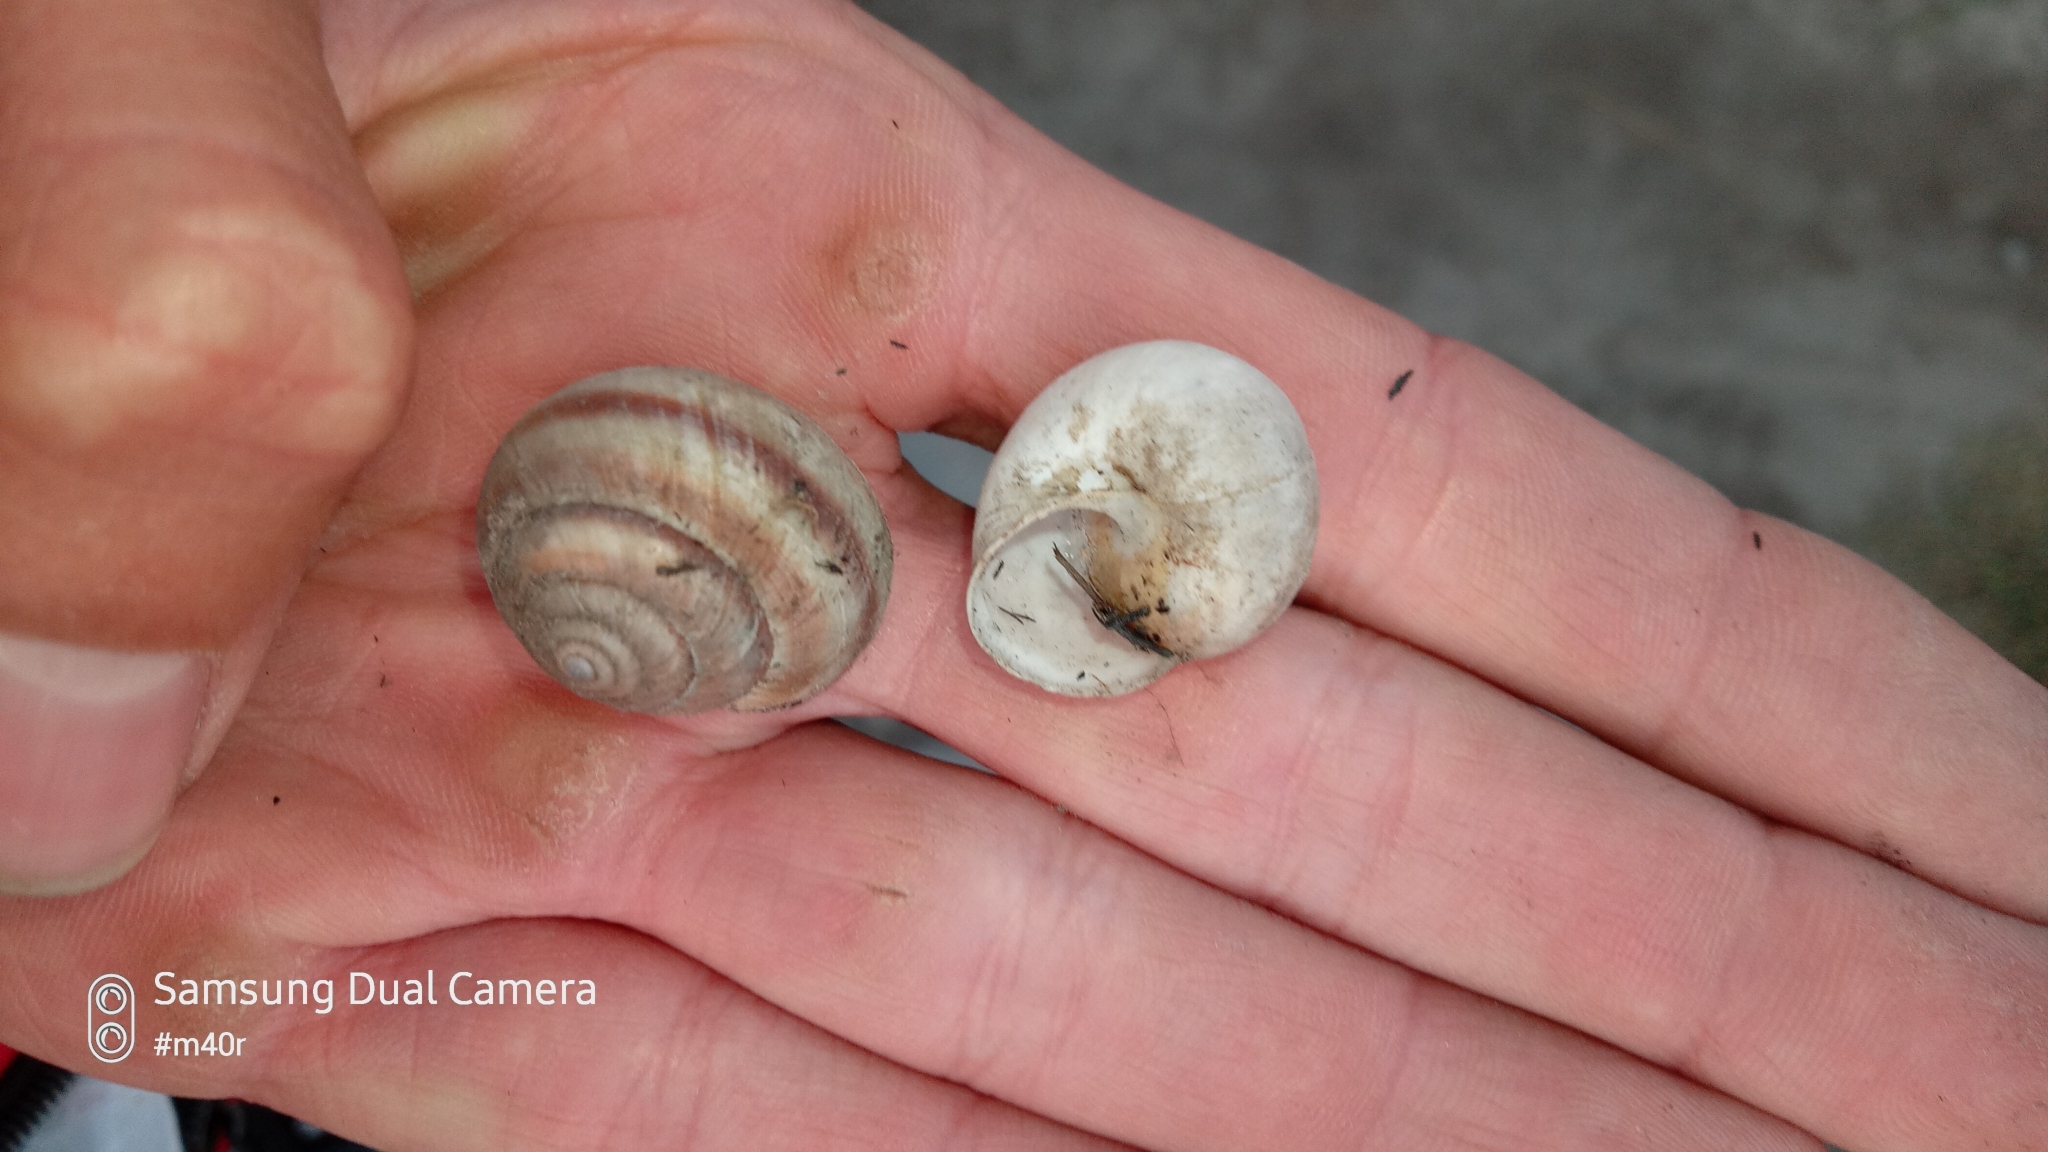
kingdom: Animalia
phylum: Mollusca
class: Gastropoda
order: Stylommatophora
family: Camaenidae
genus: Fruticicola
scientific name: Fruticicola lantzi
